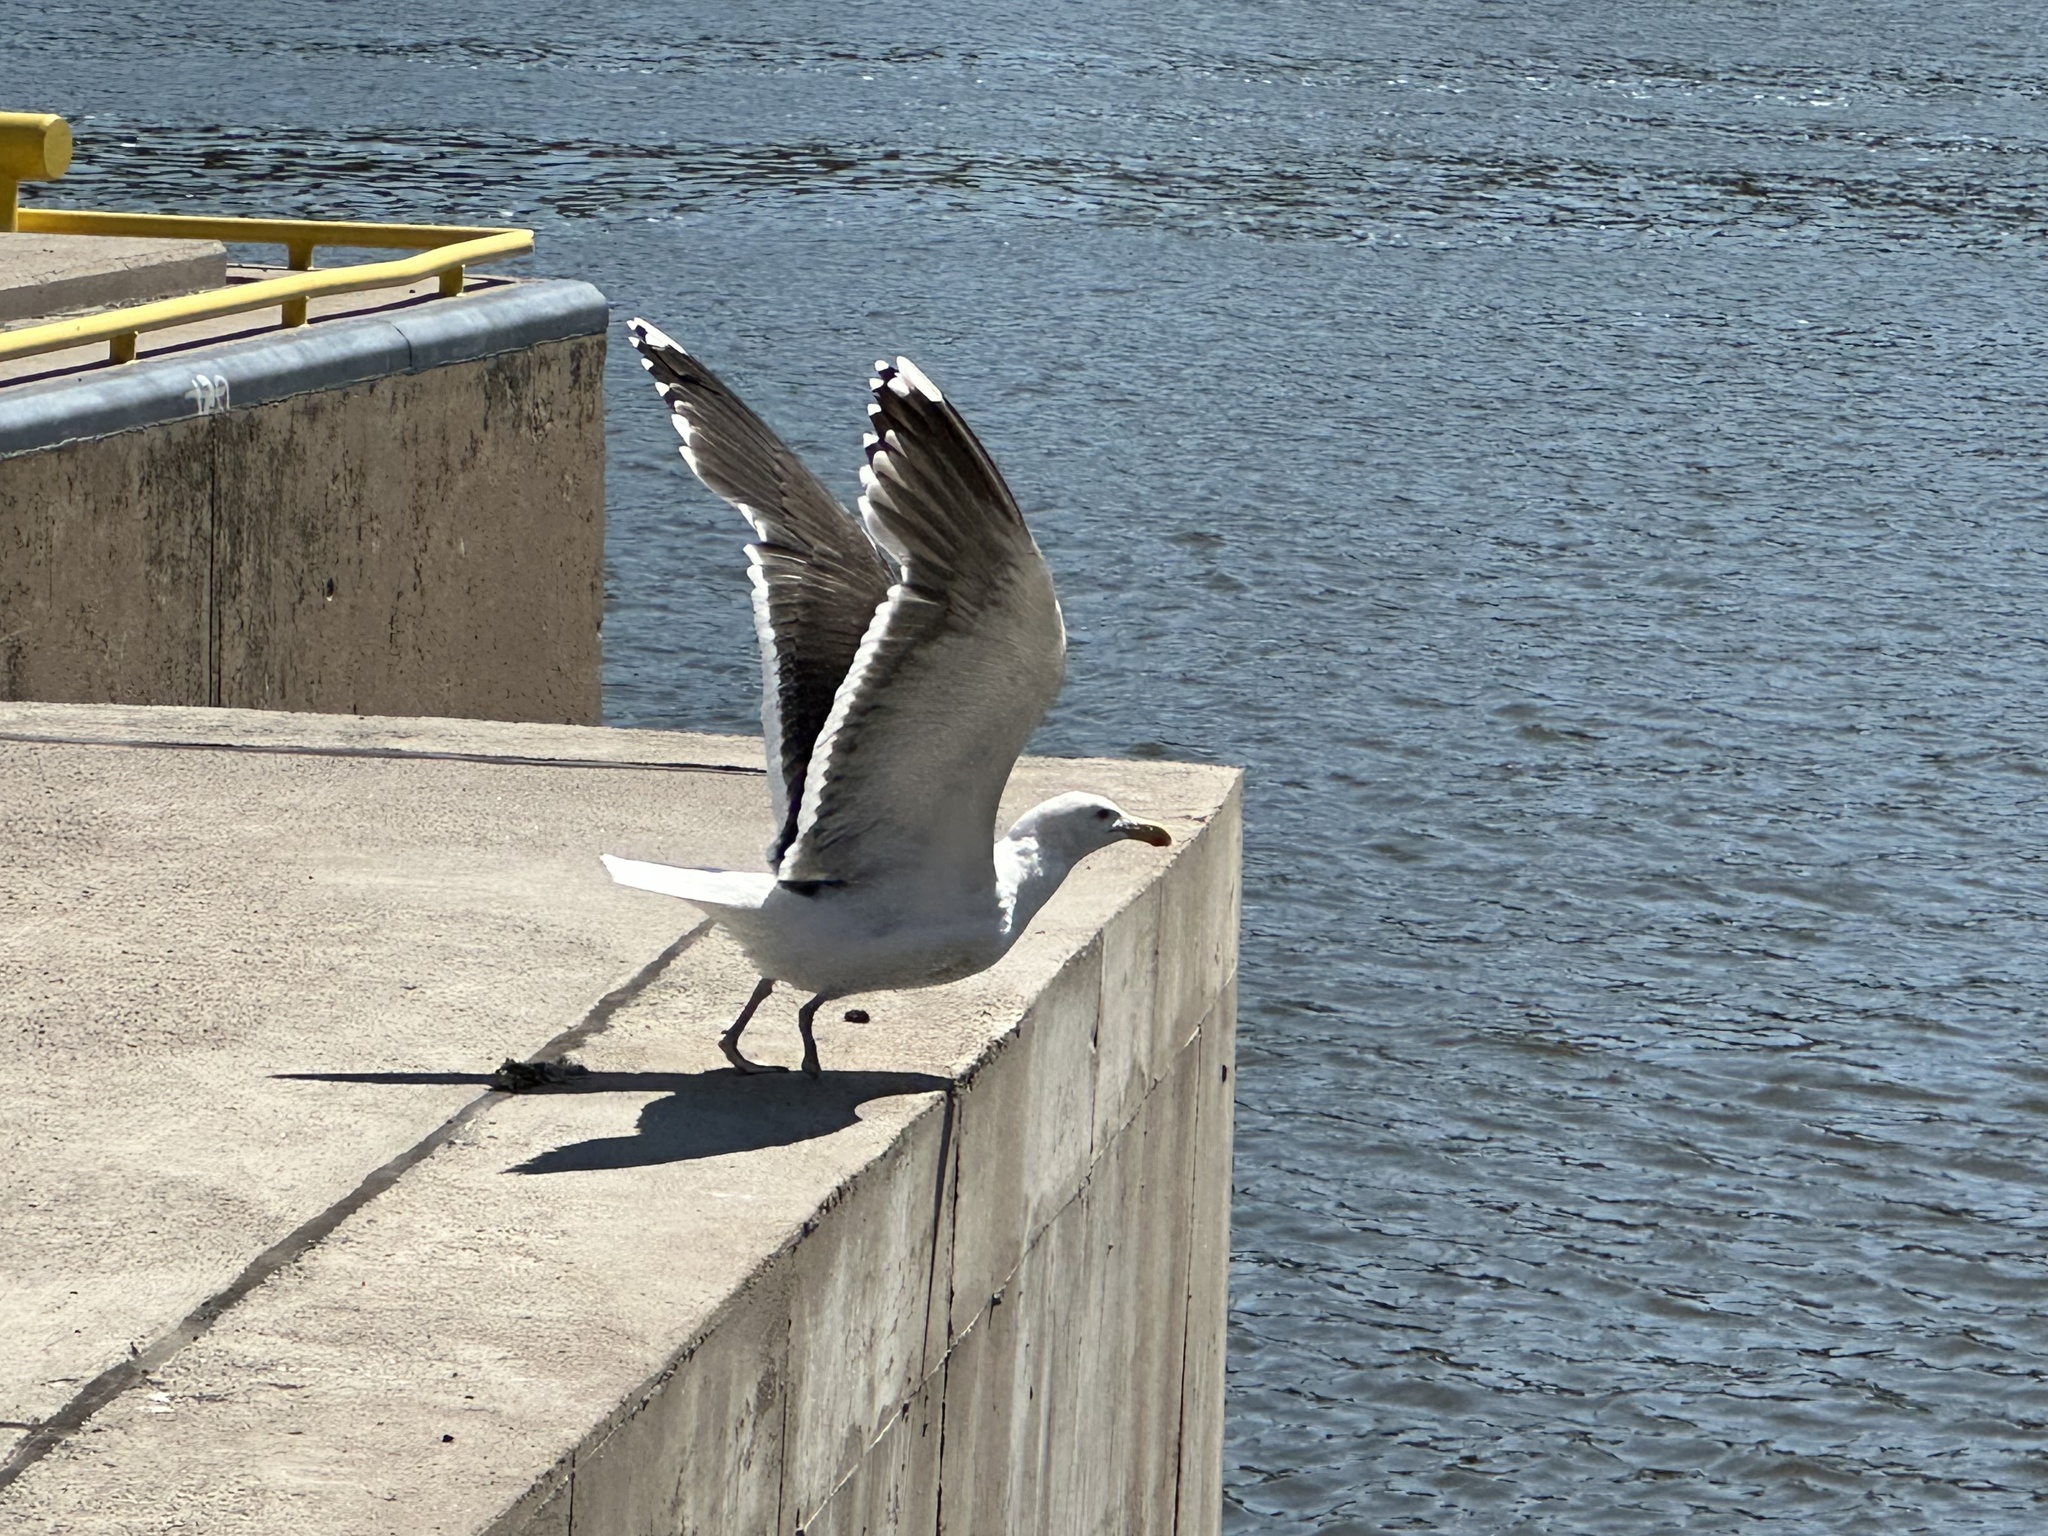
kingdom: Animalia
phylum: Chordata
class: Aves
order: Charadriiformes
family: Laridae
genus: Larus
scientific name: Larus marinus
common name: Great black-backed gull
